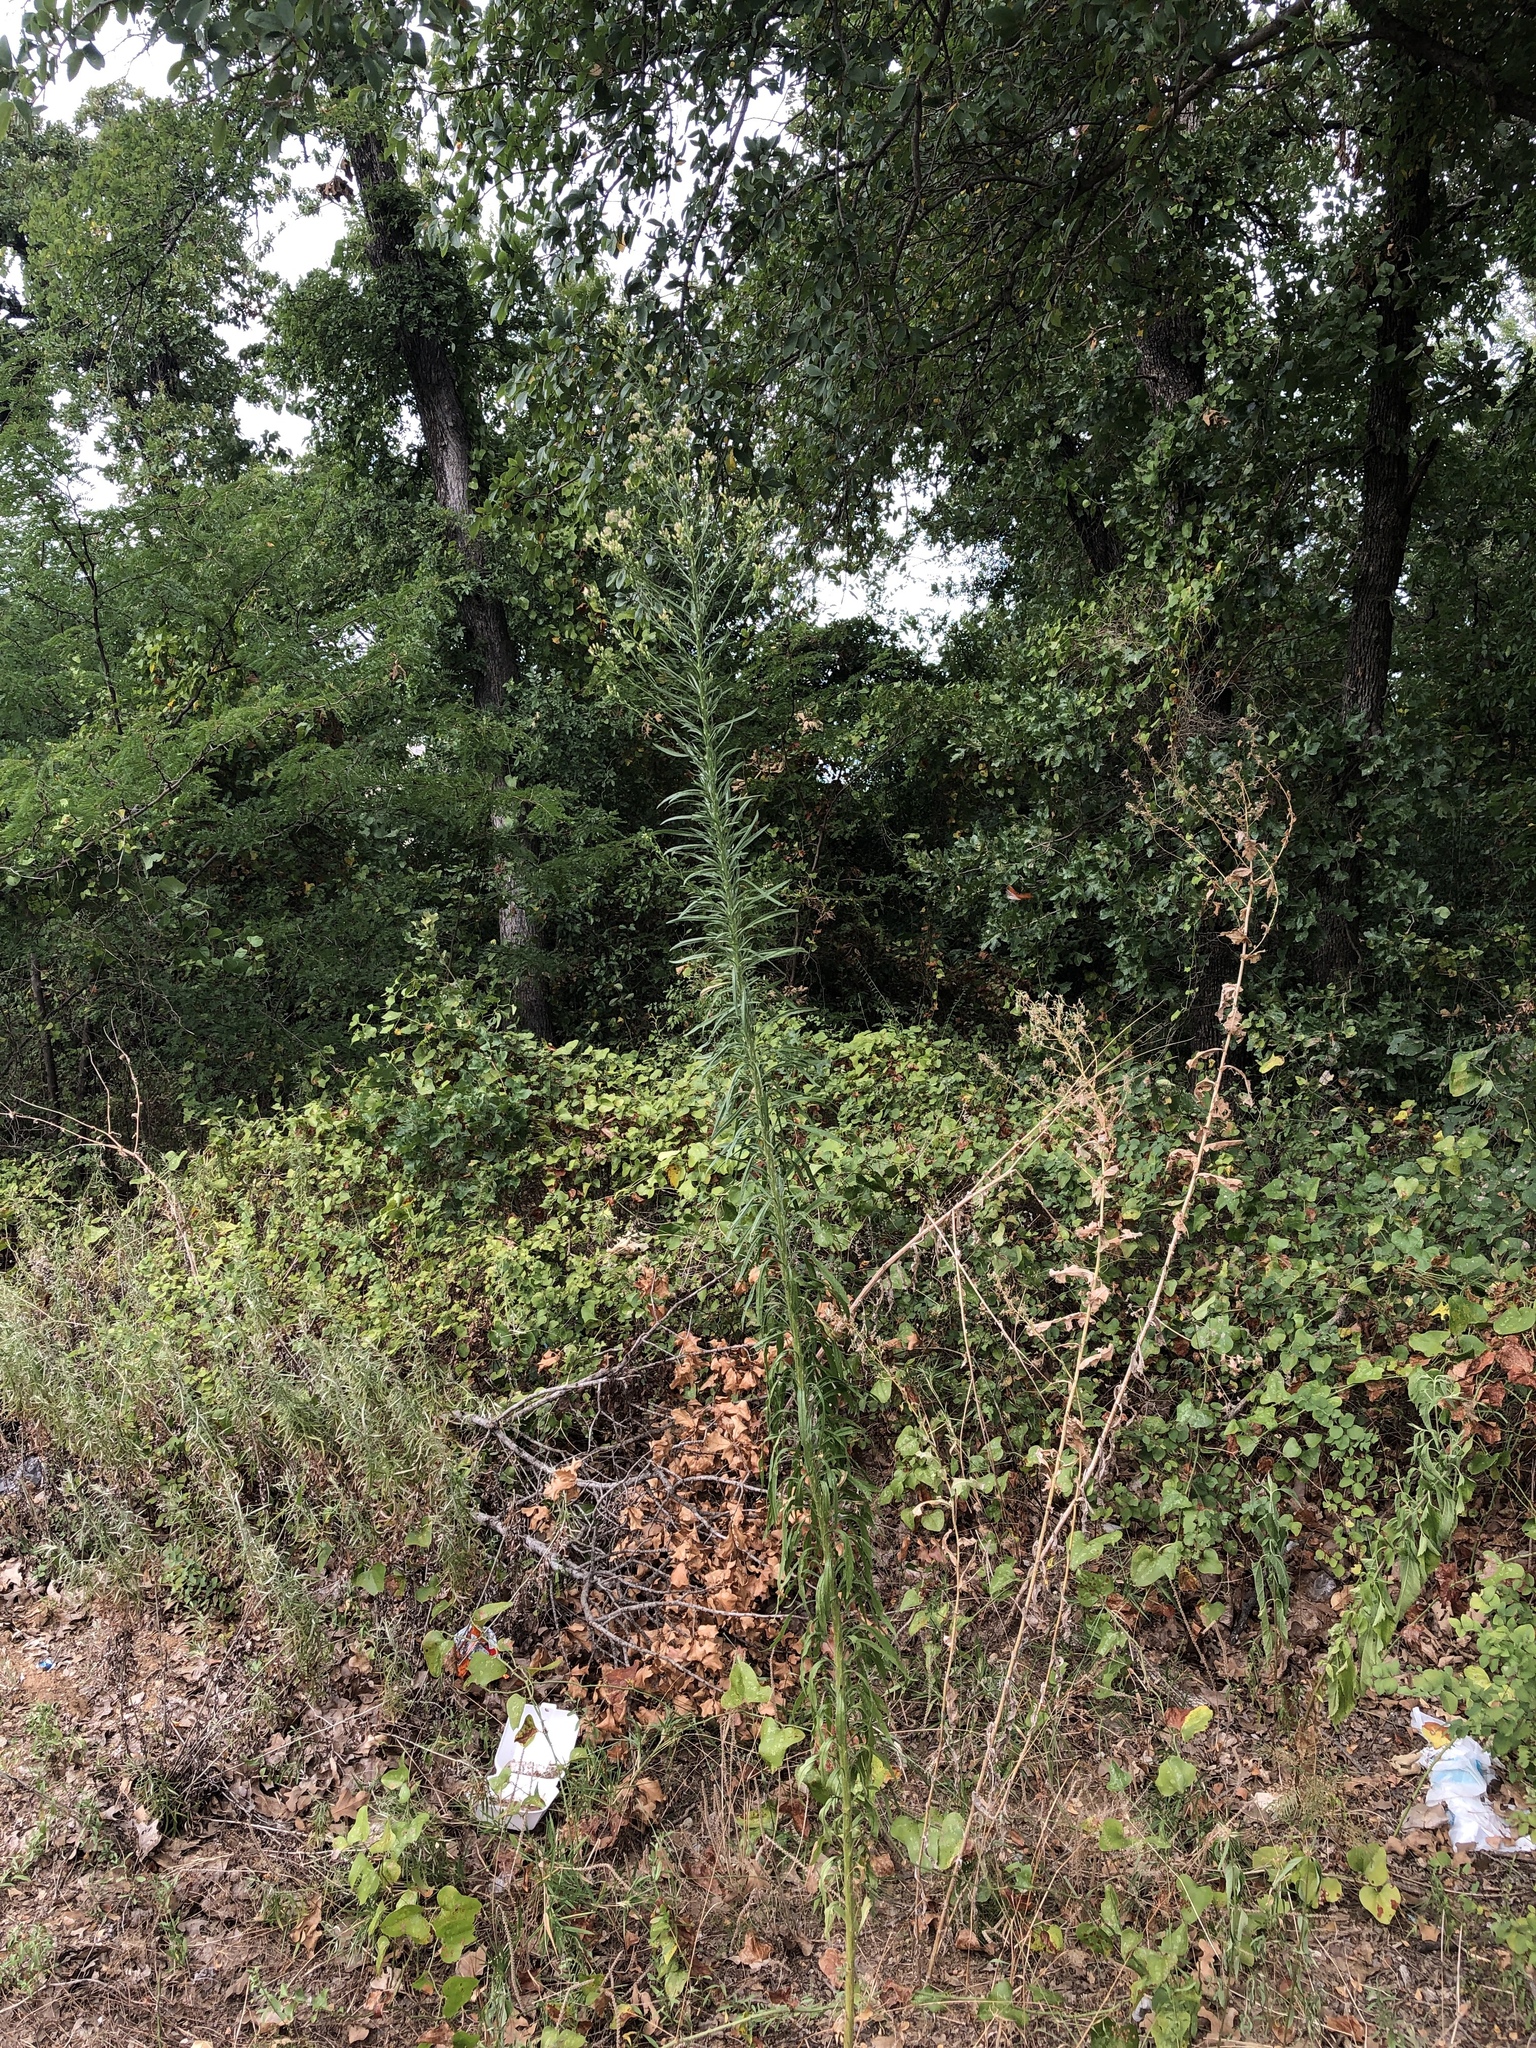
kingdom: Plantae
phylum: Tracheophyta
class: Magnoliopsida
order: Asterales
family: Asteraceae
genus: Erigeron
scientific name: Erigeron canadensis
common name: Canadian fleabane
